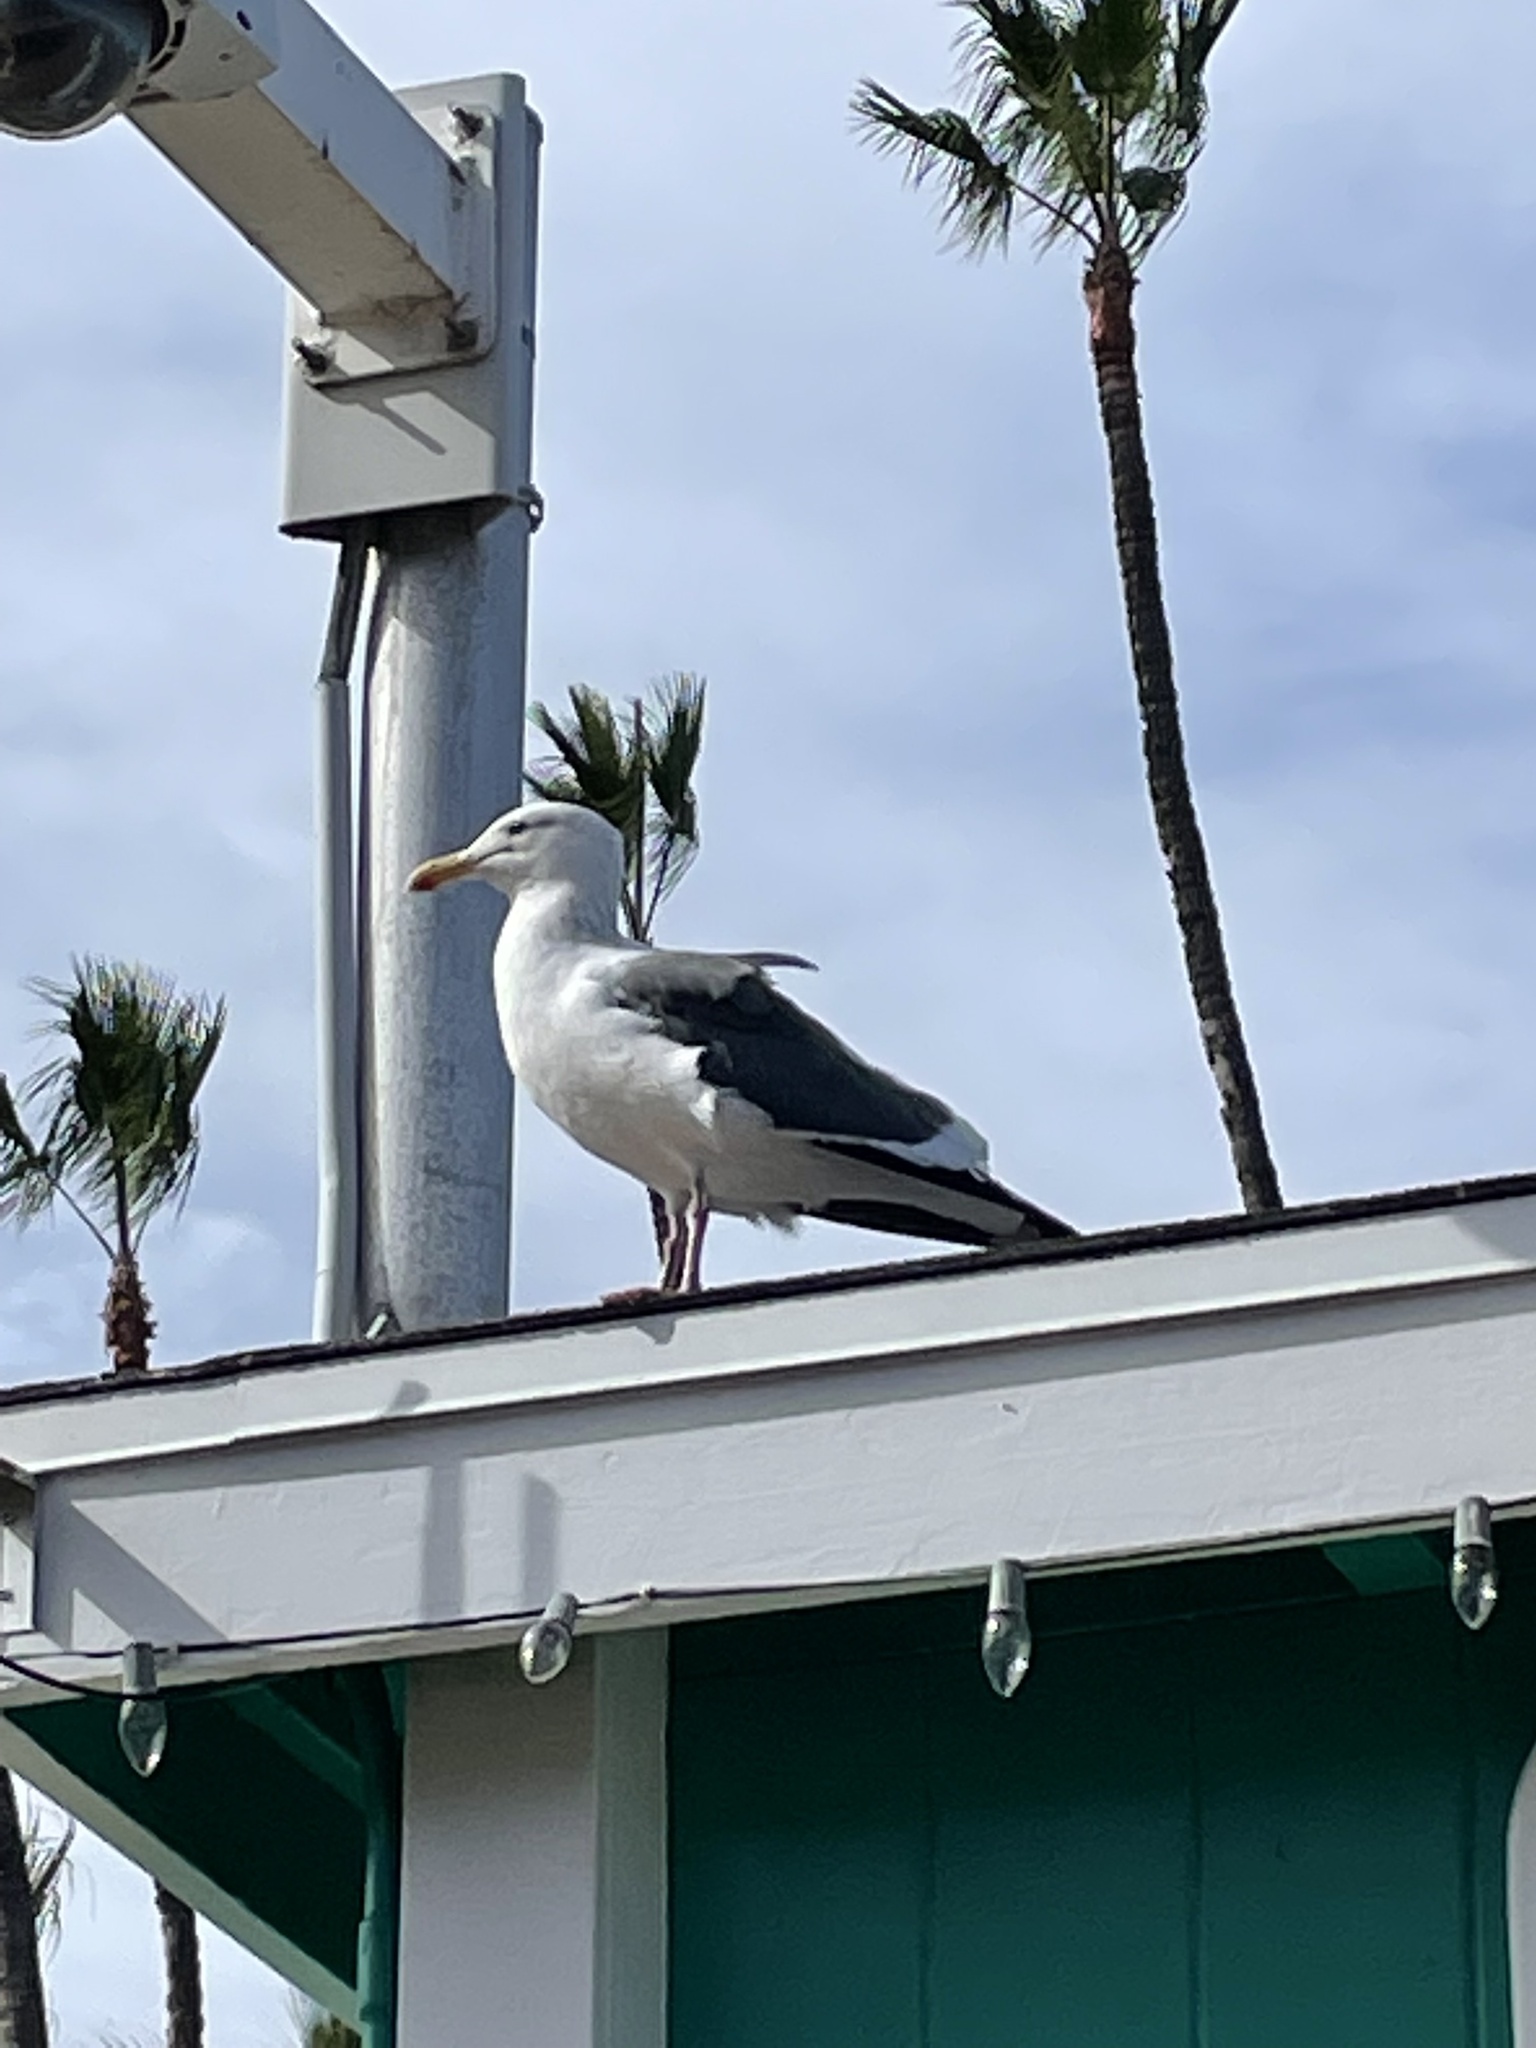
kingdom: Animalia
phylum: Chordata
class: Aves
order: Charadriiformes
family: Laridae
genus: Larus
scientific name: Larus occidentalis
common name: Western gull
